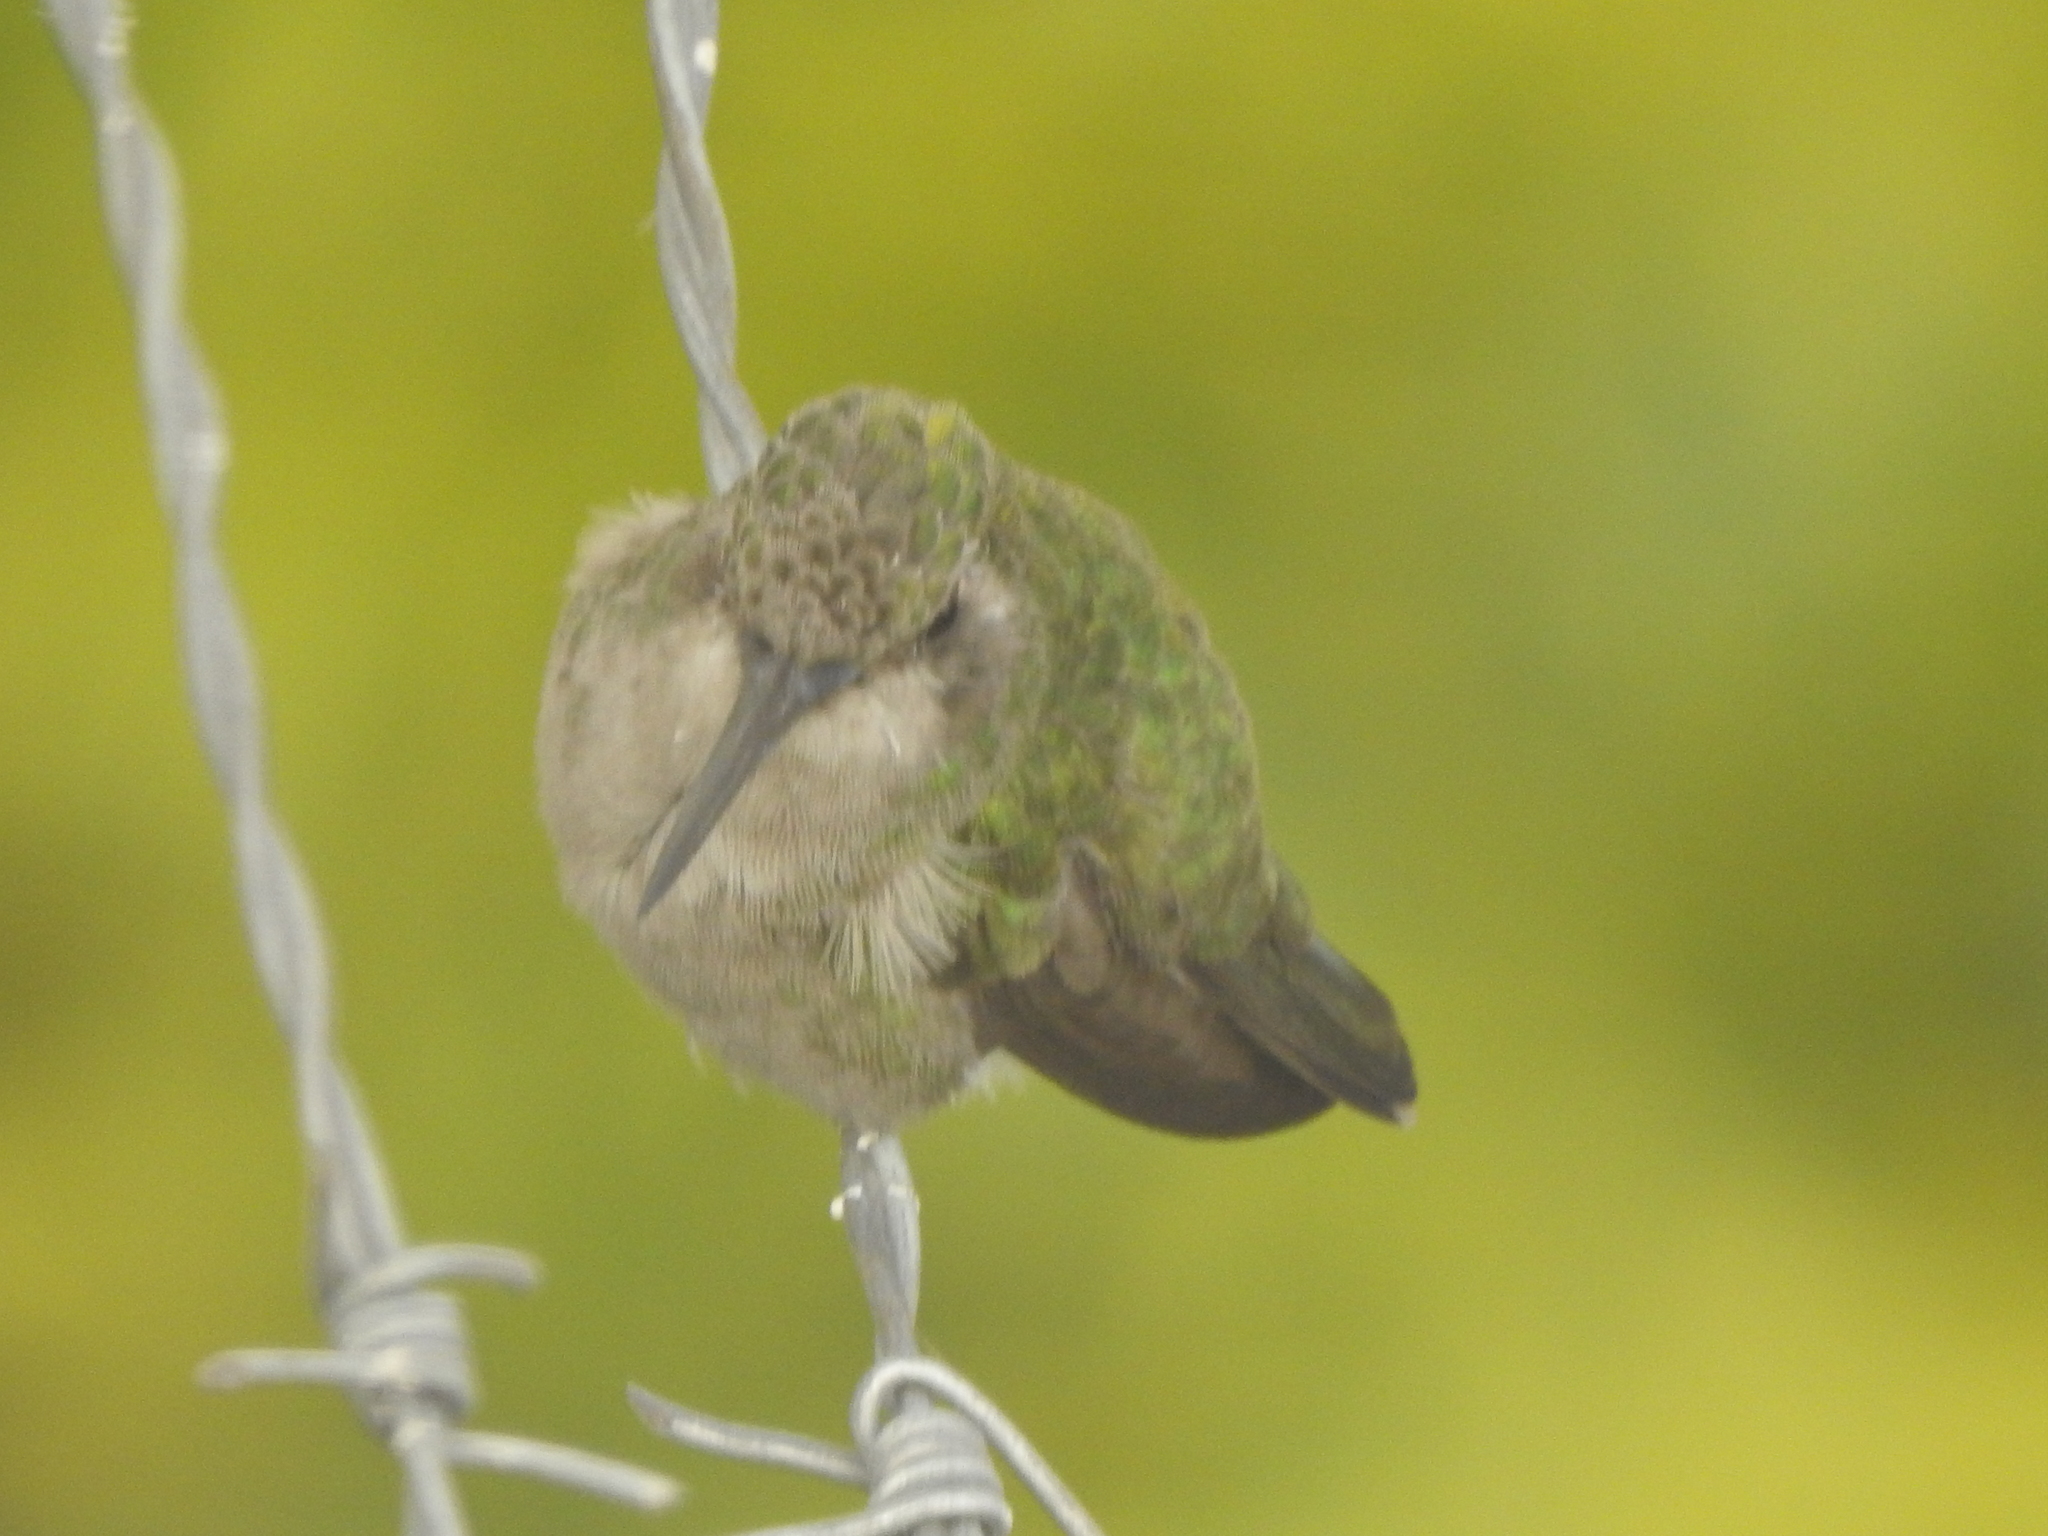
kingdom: Animalia
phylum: Chordata
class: Aves
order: Apodiformes
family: Trochilidae
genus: Cynanthus
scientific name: Cynanthus latirostris
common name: Broad-billed hummingbird
